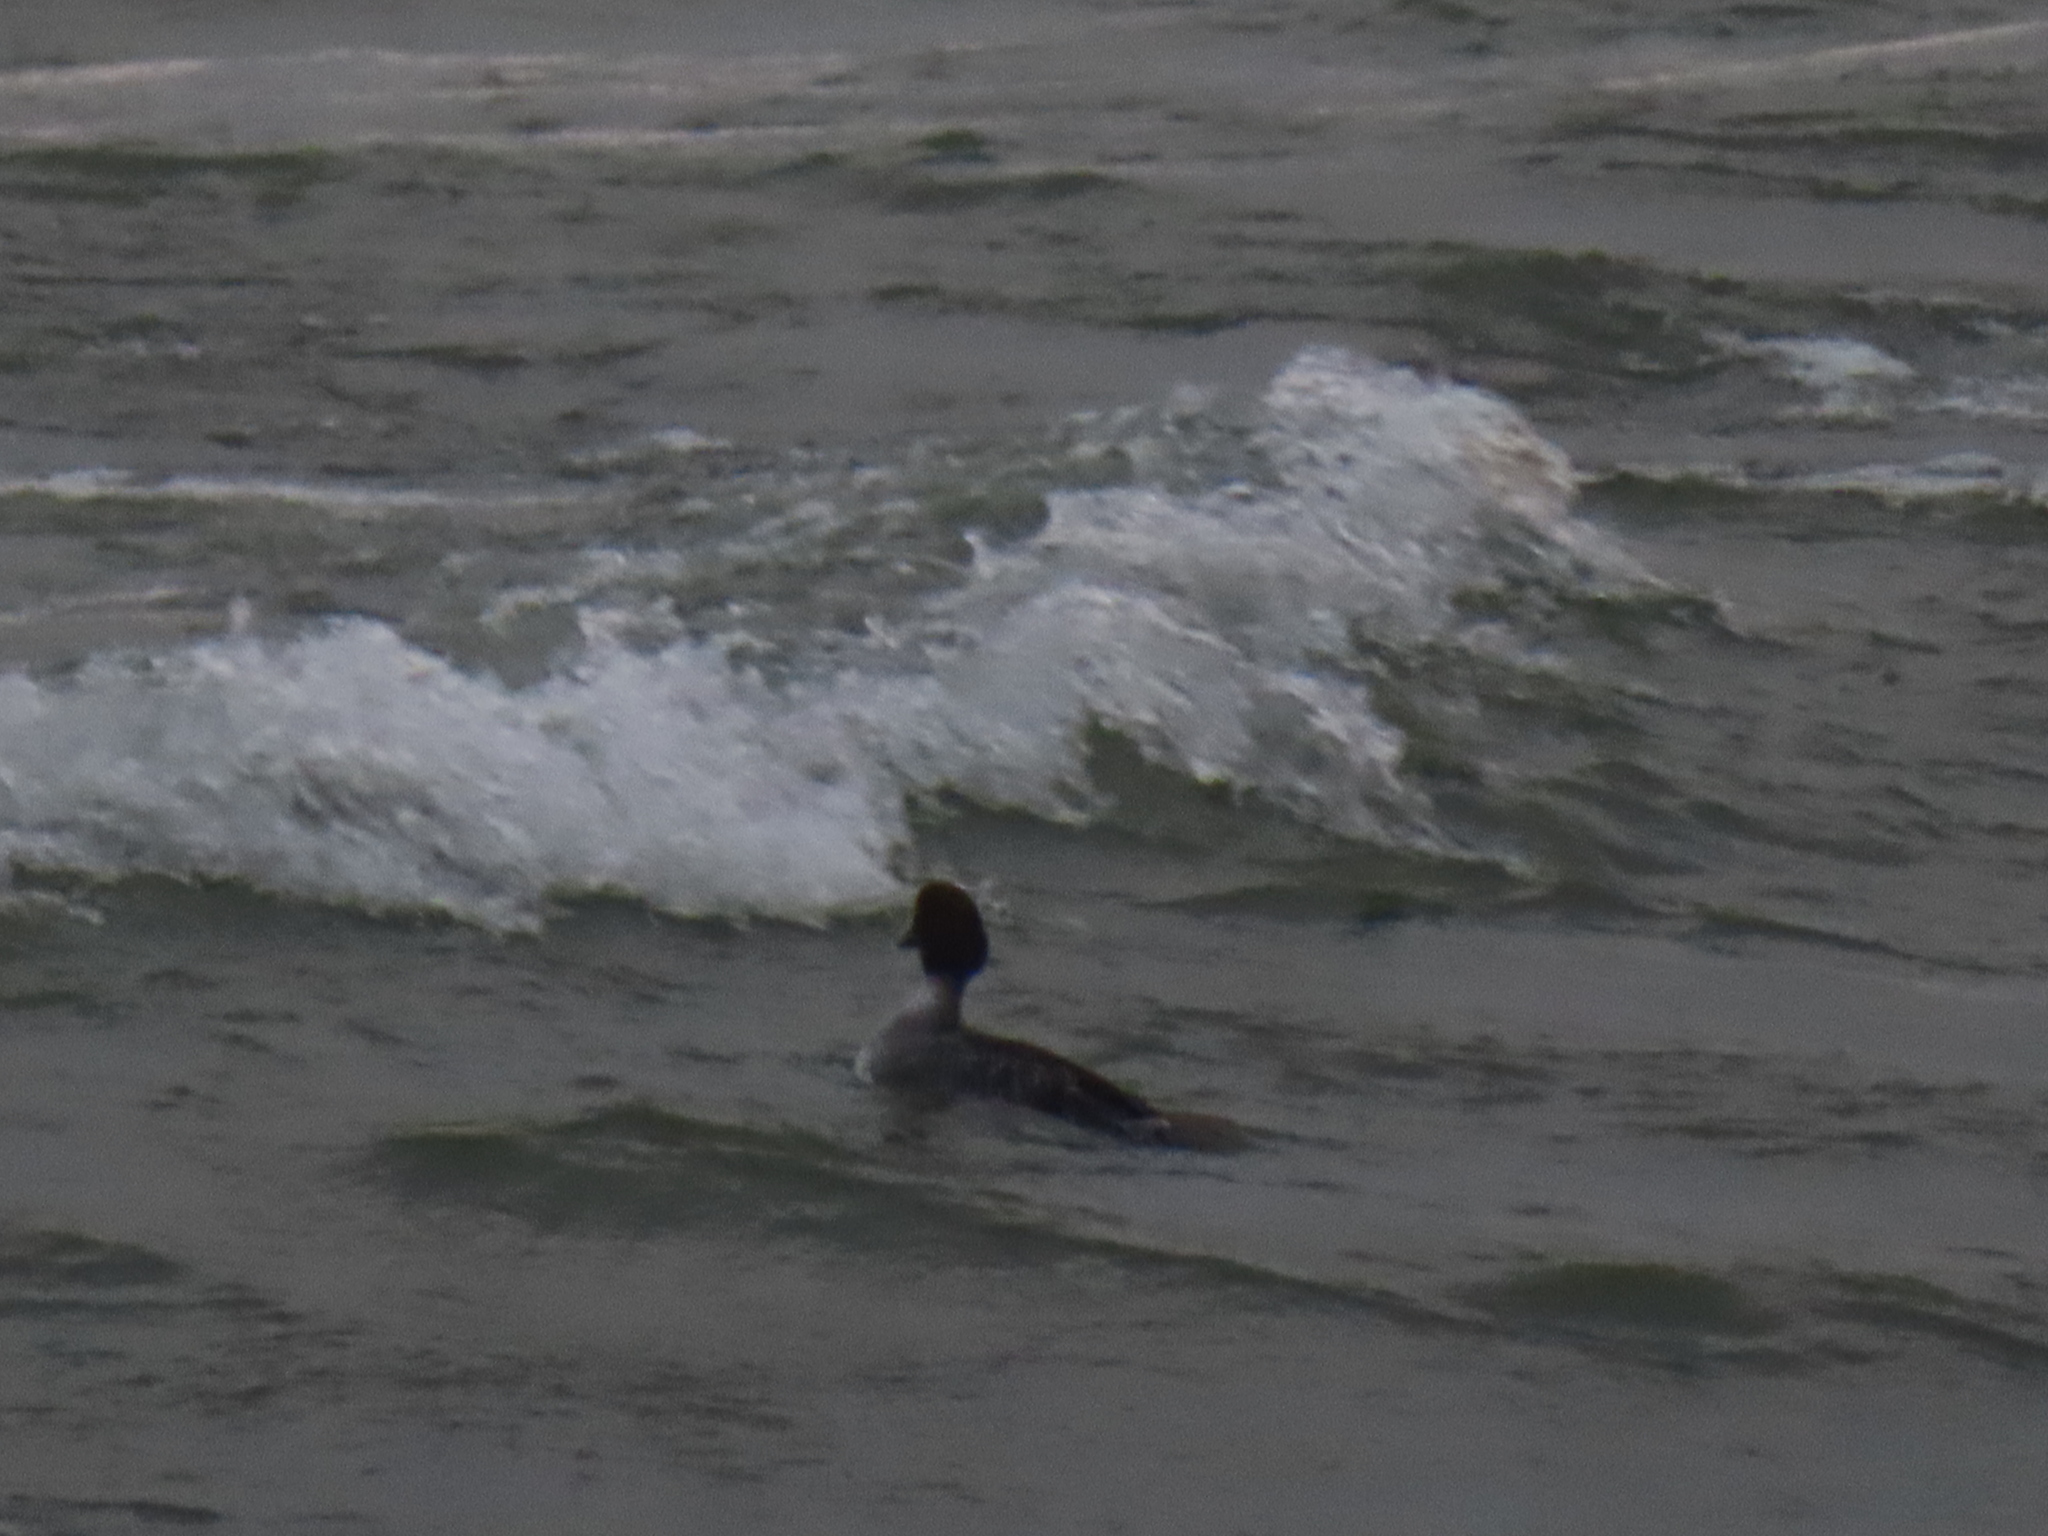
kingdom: Animalia
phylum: Chordata
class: Aves
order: Anseriformes
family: Anatidae
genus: Bucephala
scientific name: Bucephala clangula
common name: Common goldeneye
